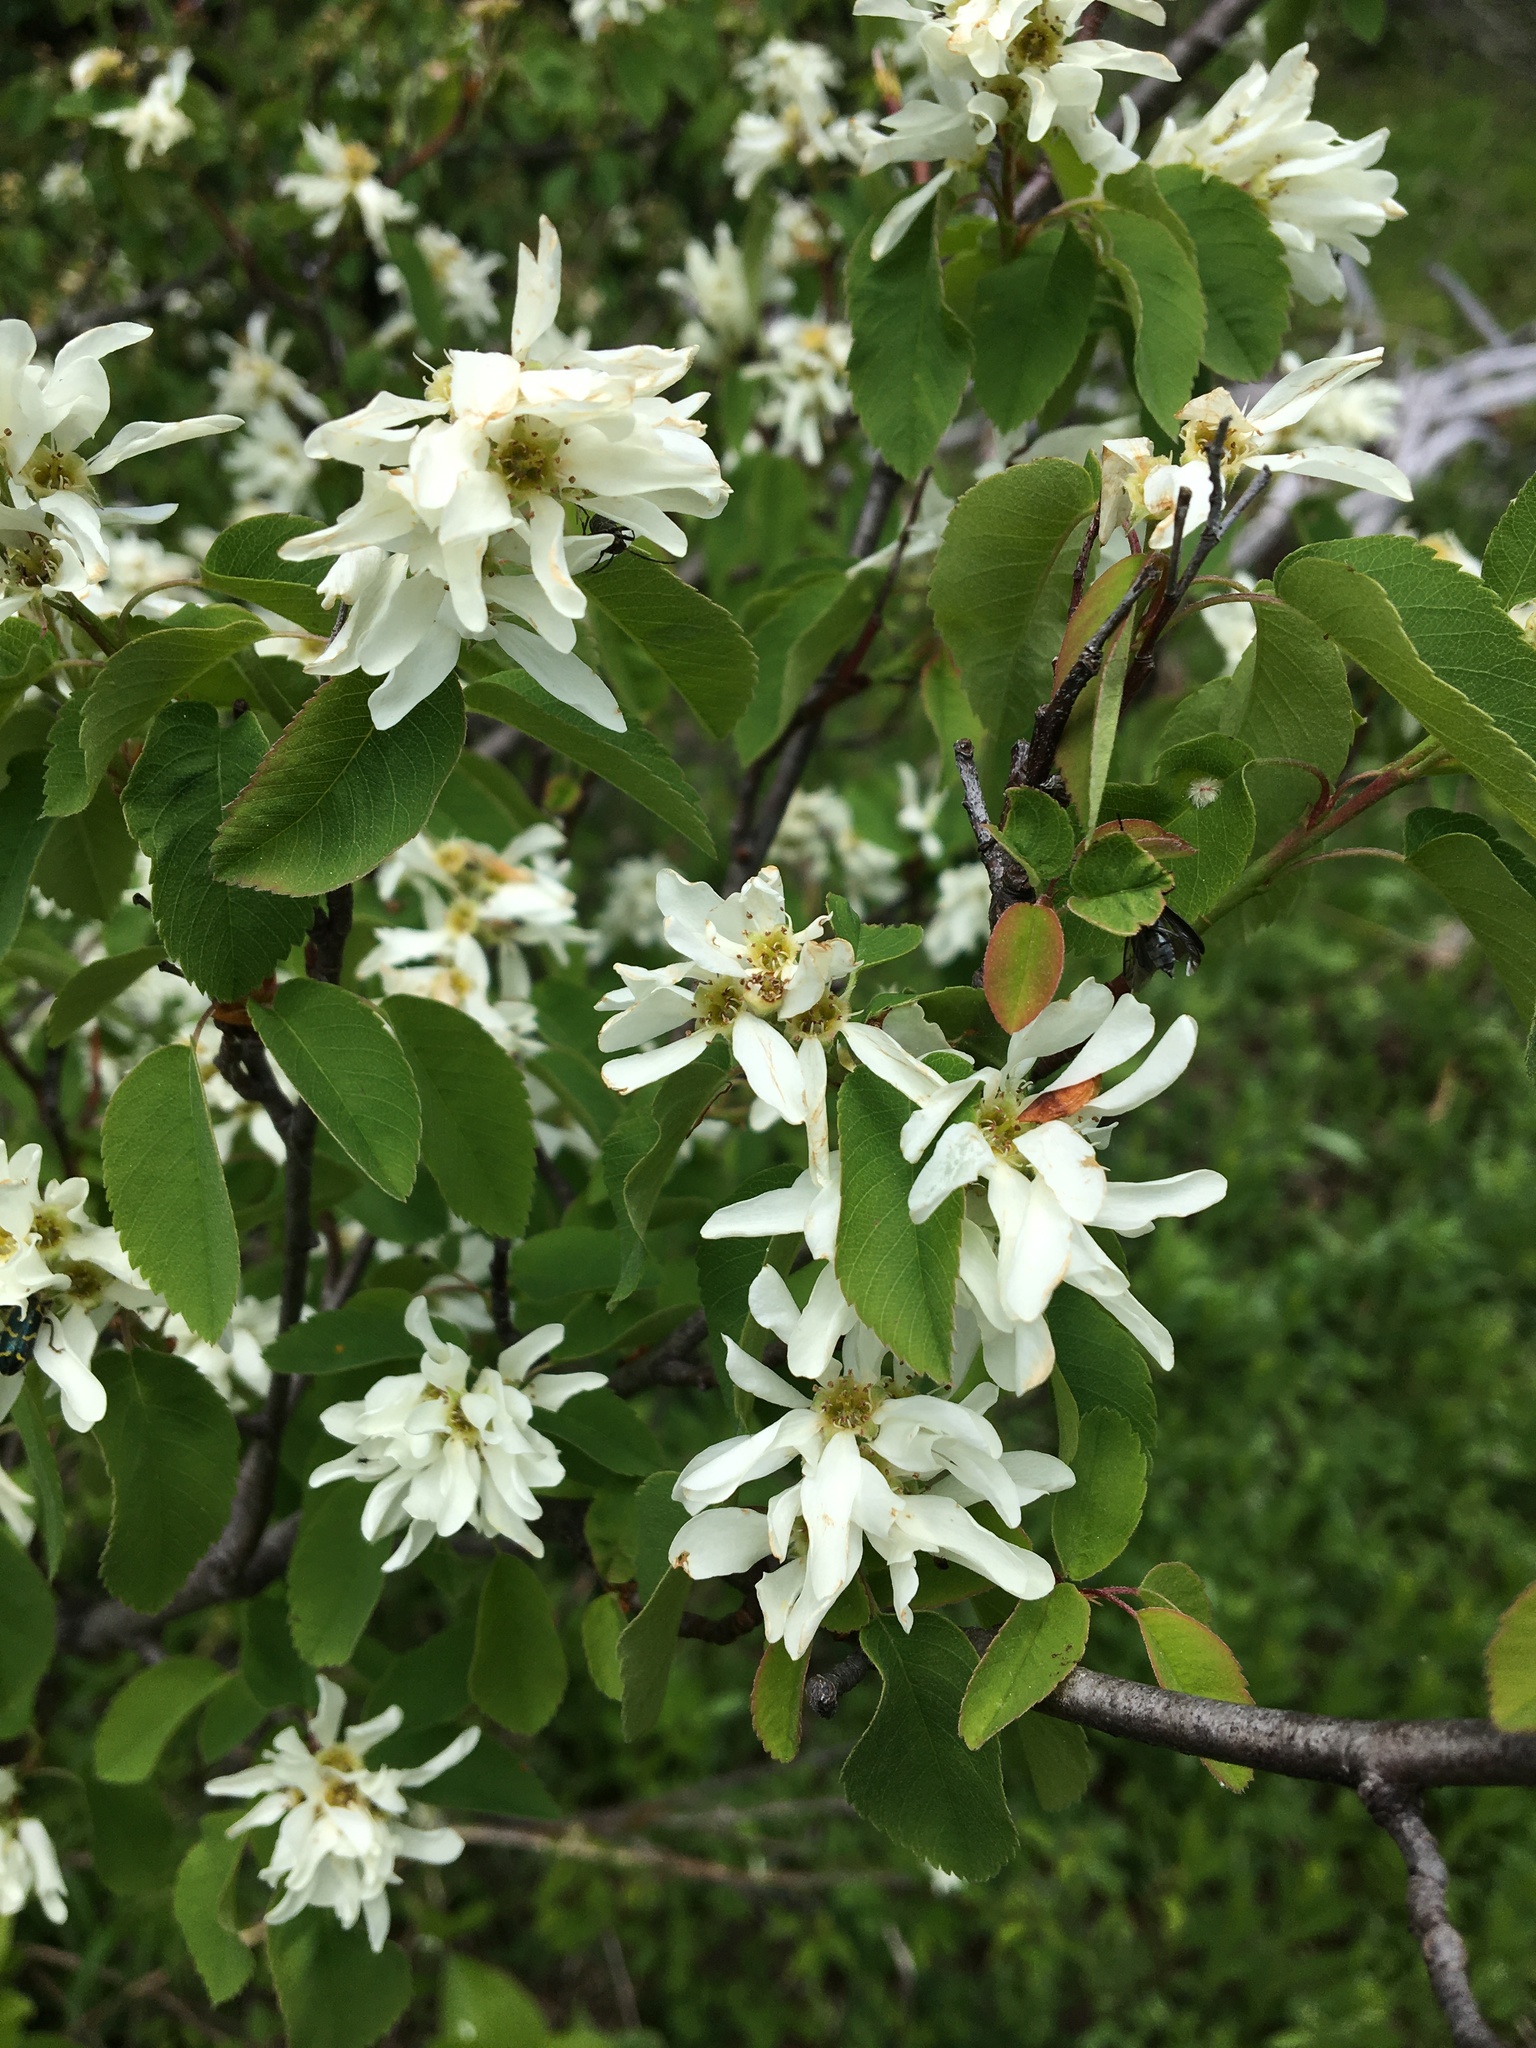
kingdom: Plantae
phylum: Tracheophyta
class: Magnoliopsida
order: Rosales
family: Rosaceae
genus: Amelanchier
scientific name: Amelanchier alnifolia
